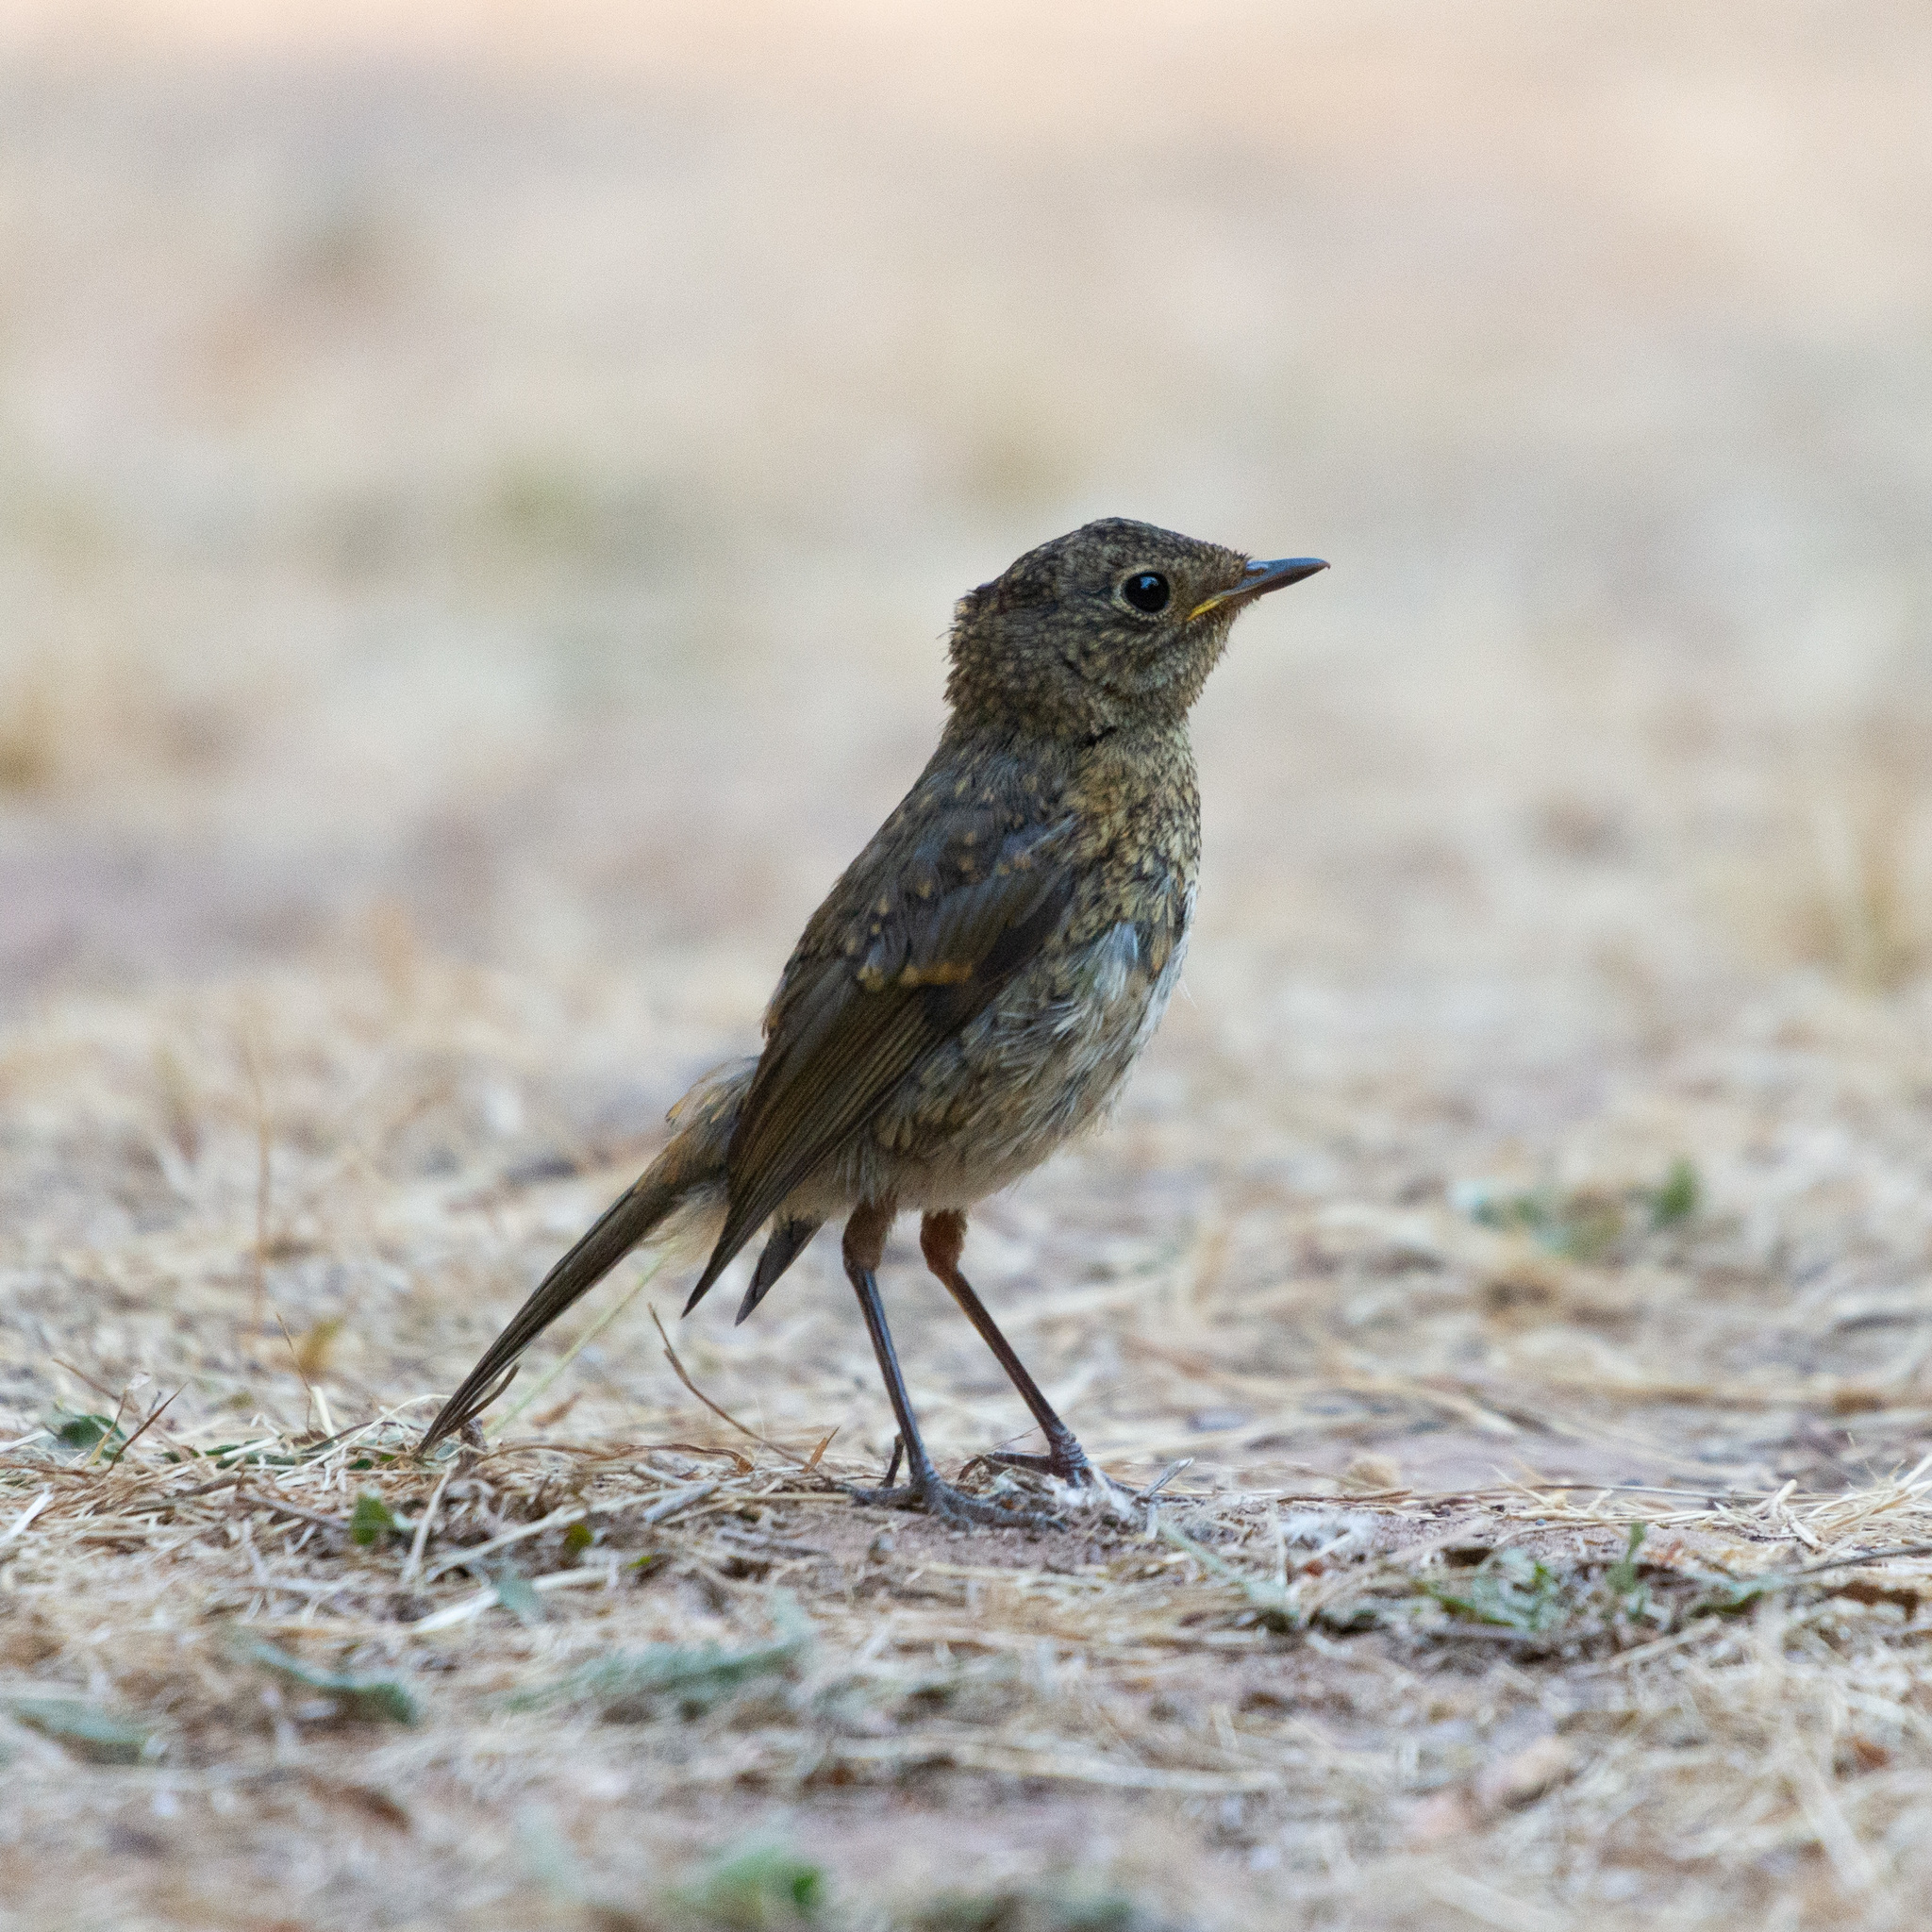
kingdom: Animalia
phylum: Chordata
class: Aves
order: Passeriformes
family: Muscicapidae
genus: Erithacus
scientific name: Erithacus rubecula
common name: European robin
